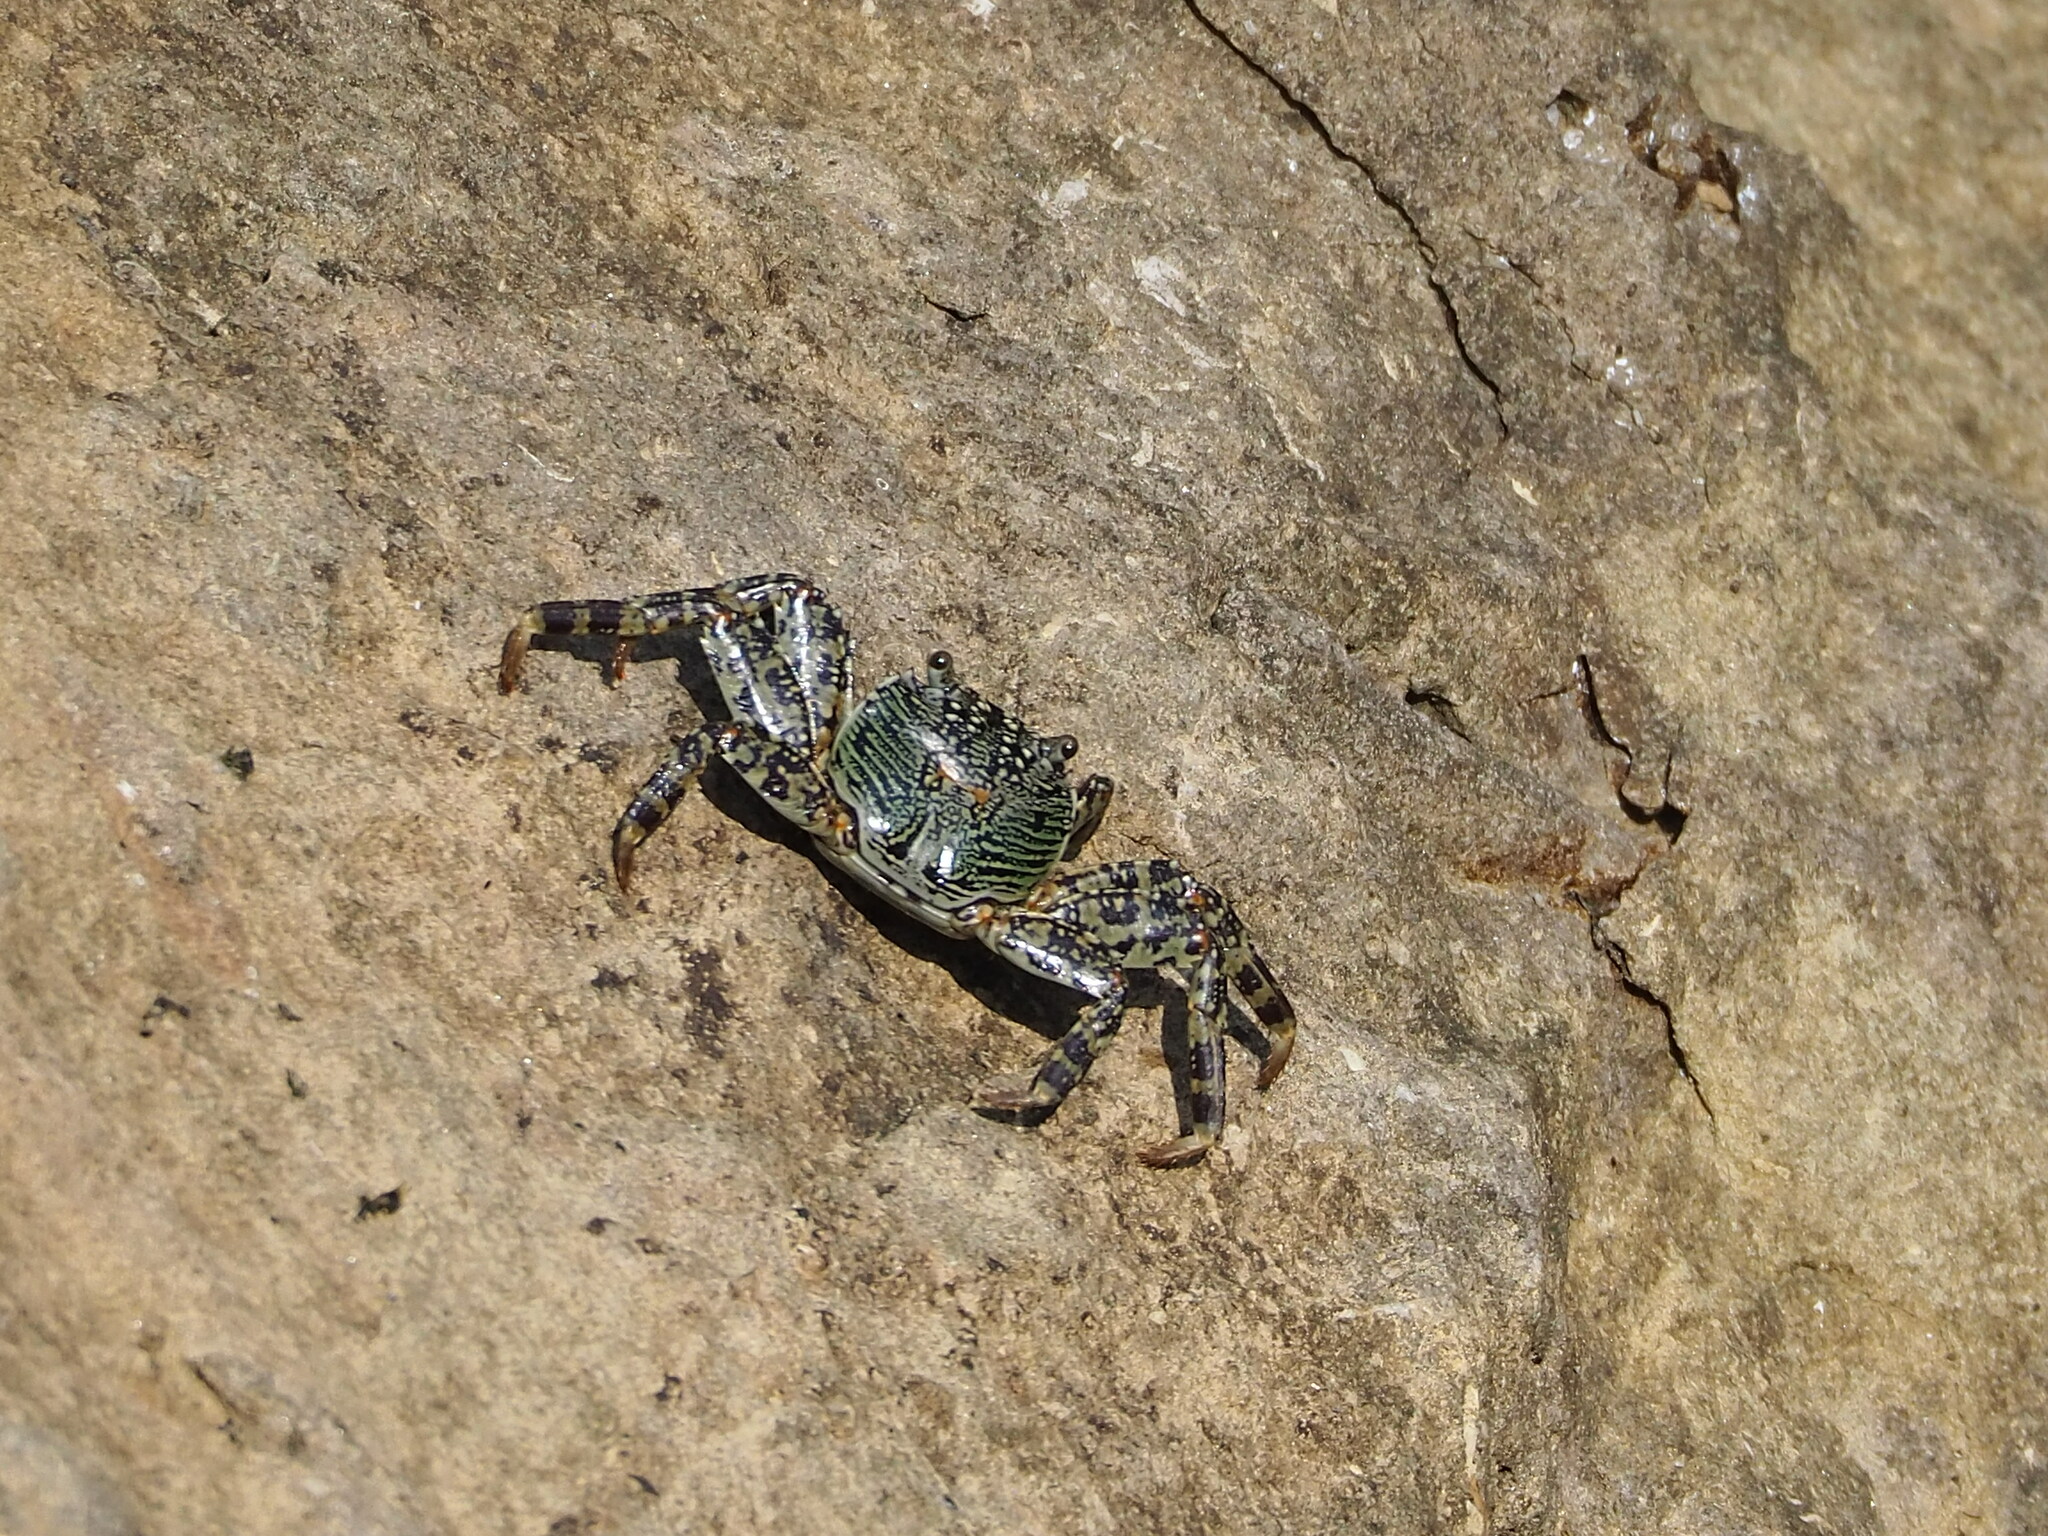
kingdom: Animalia
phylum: Arthropoda
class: Malacostraca
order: Decapoda
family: Grapsidae
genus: Grapsus
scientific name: Grapsus albolineatus
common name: Mottled lightfoot crab
